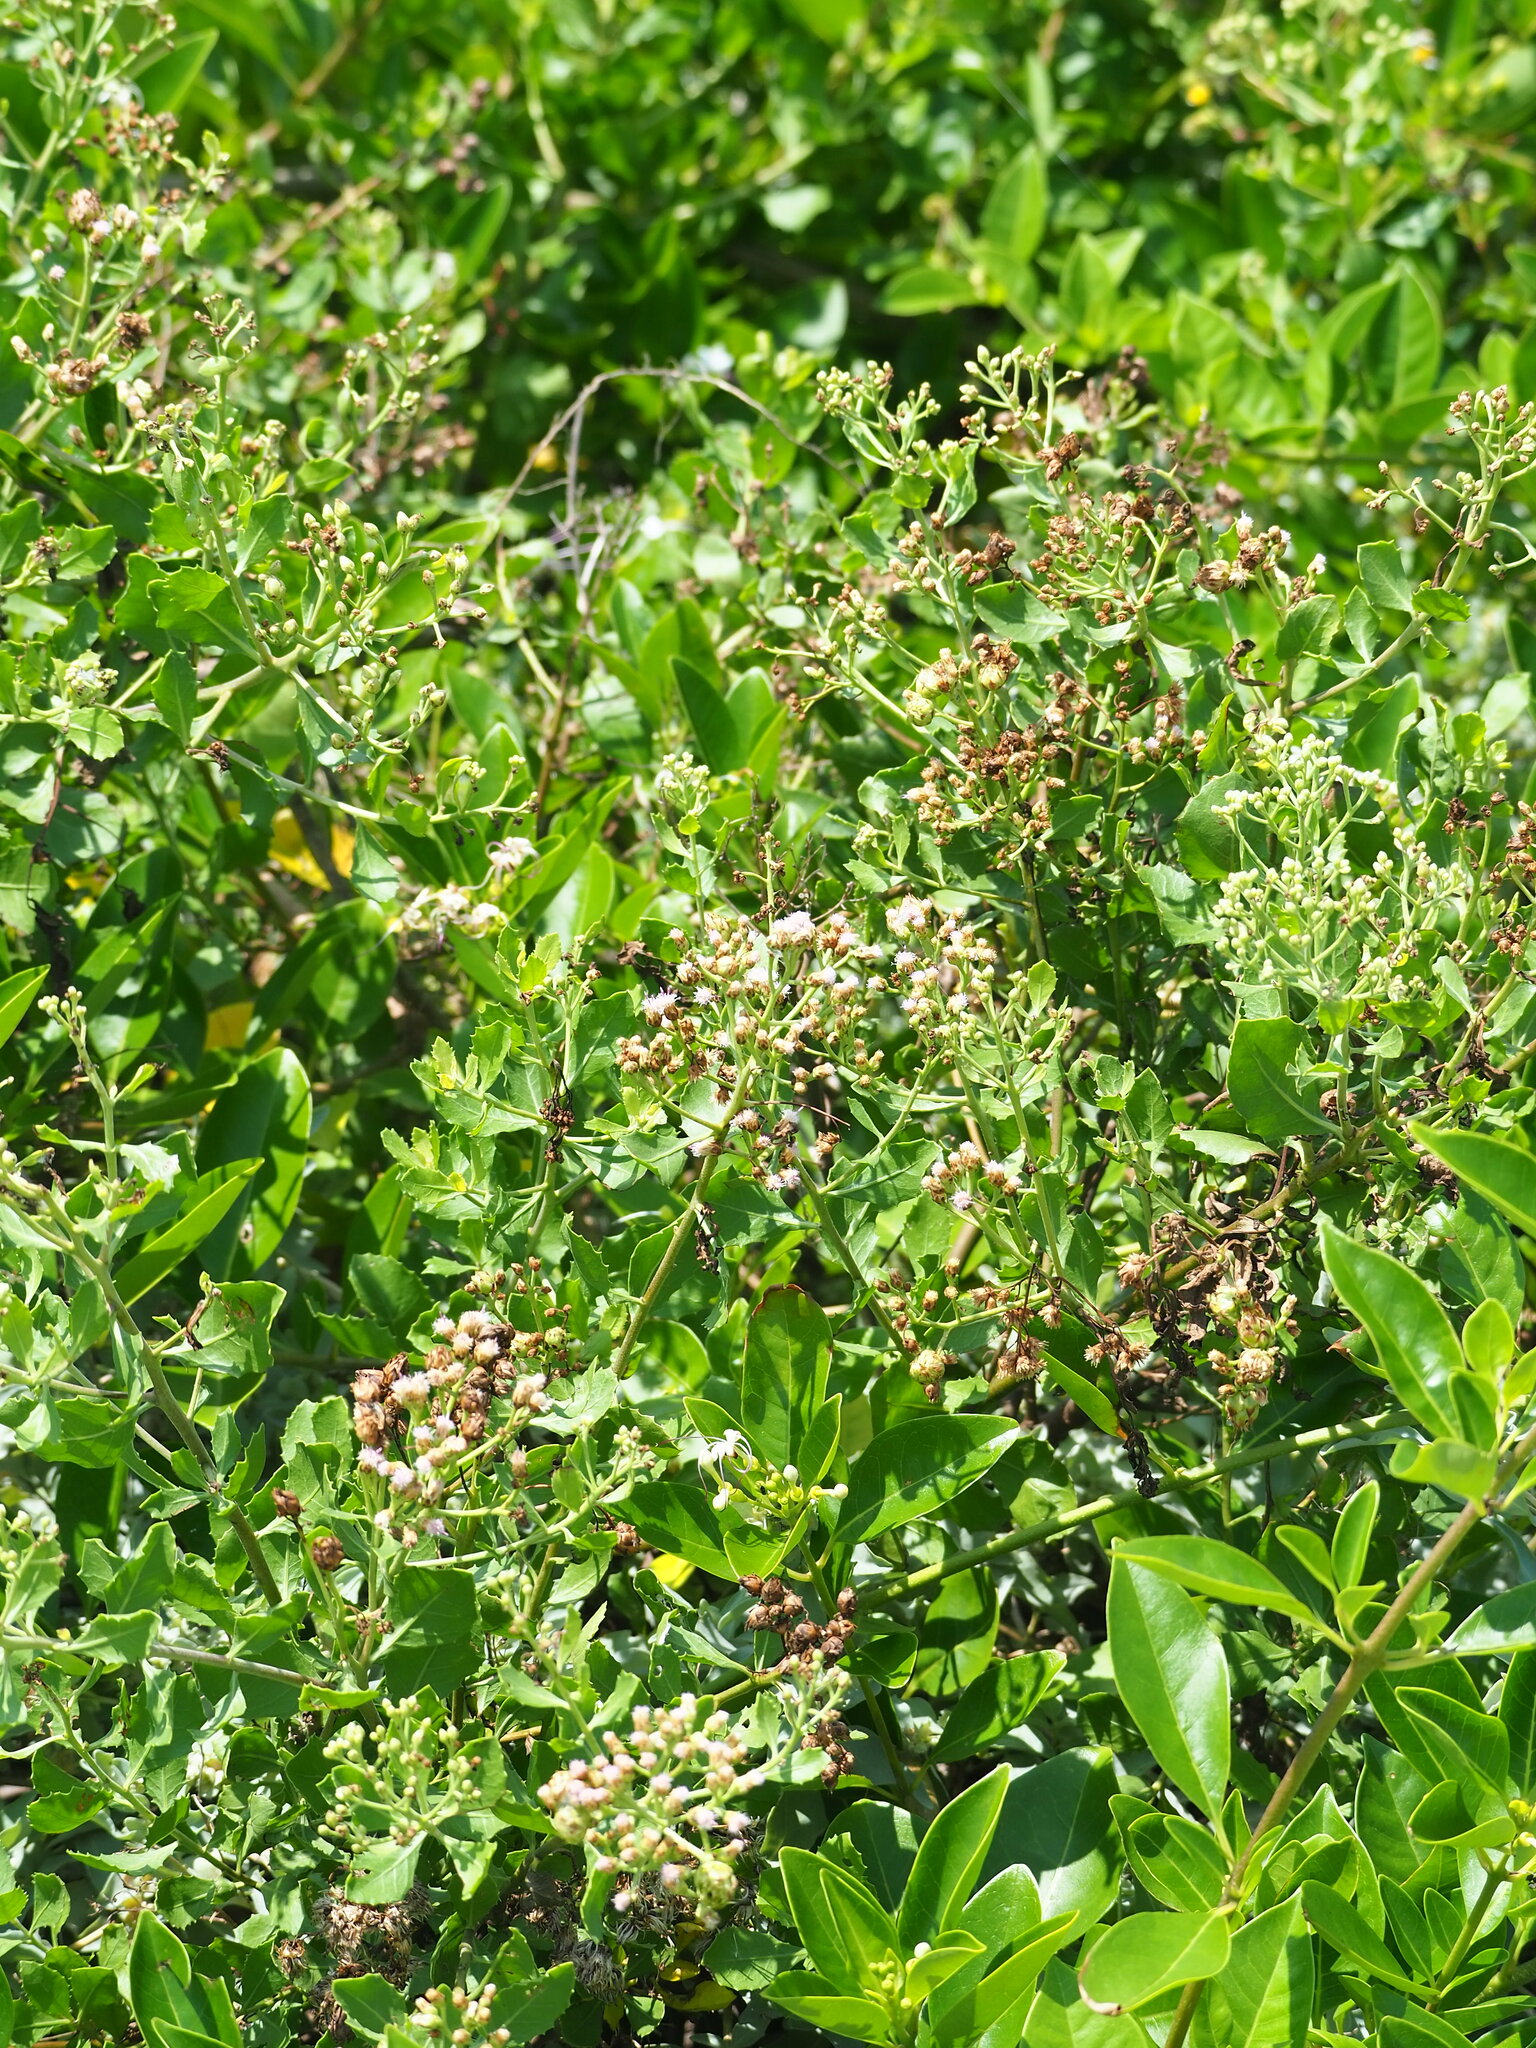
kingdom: Plantae
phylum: Tracheophyta
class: Magnoliopsida
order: Asterales
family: Asteraceae
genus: Pluchea
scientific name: Pluchea indica
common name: Indian fleabane
